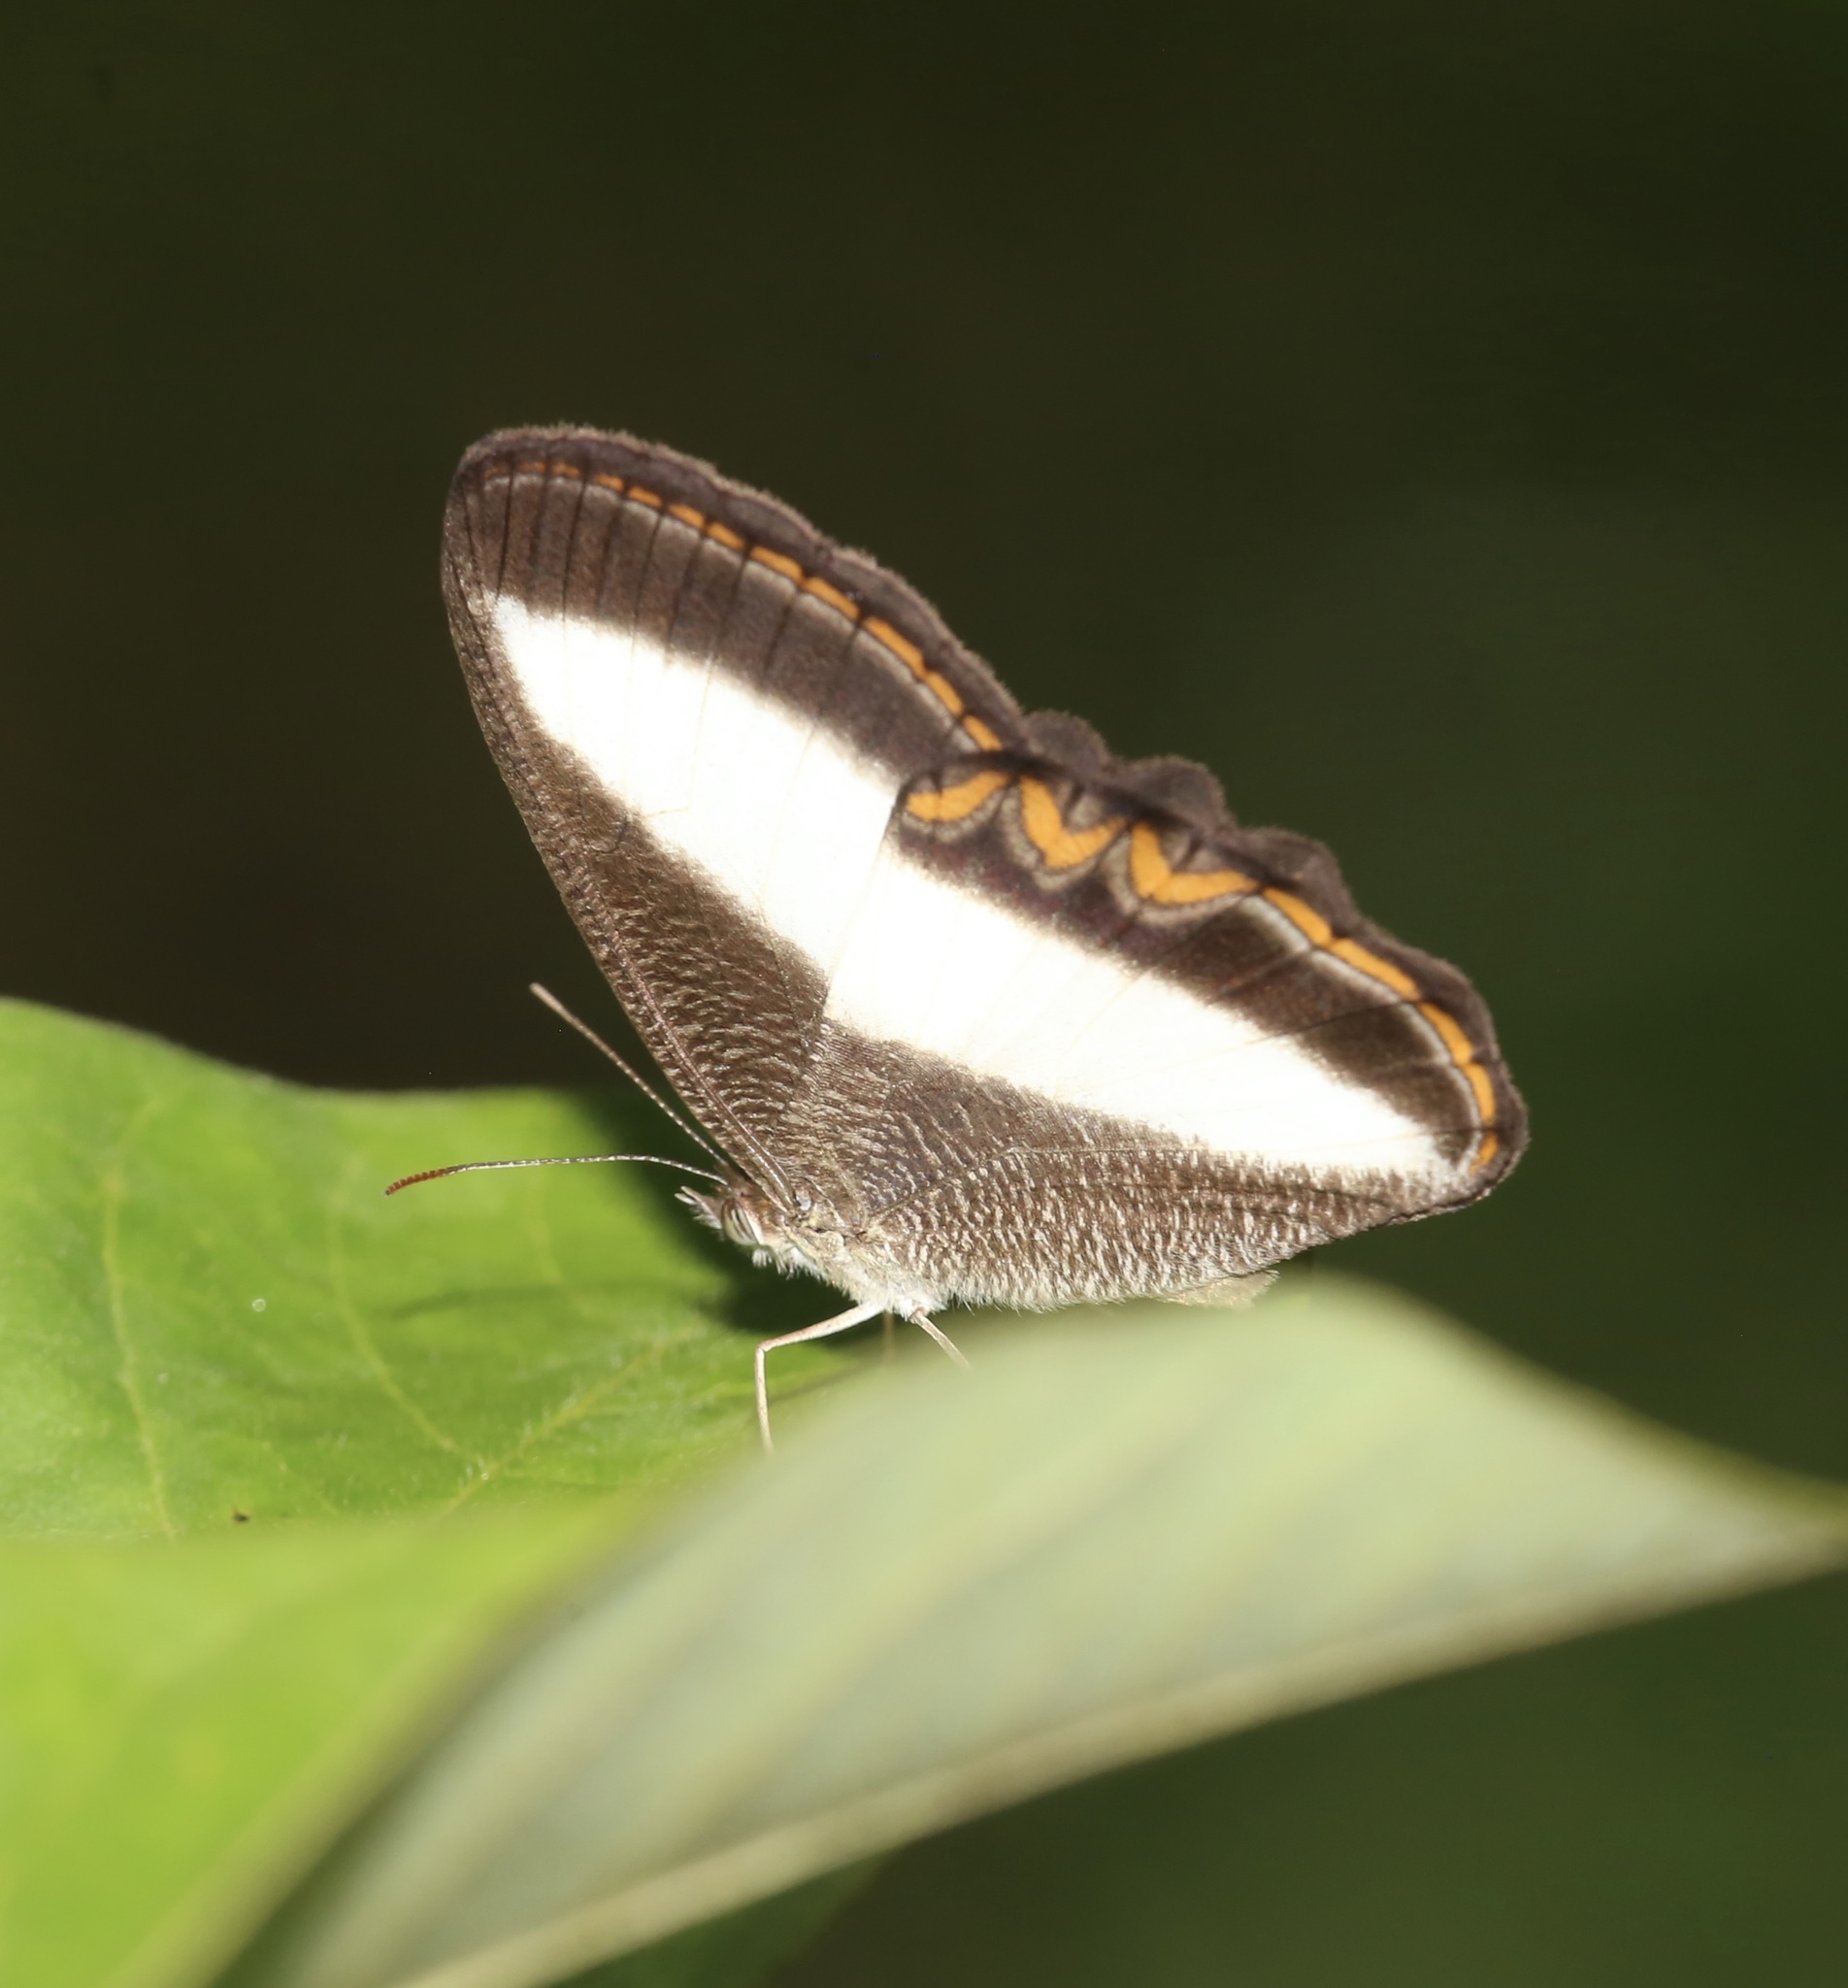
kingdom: Animalia
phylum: Arthropoda
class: Insecta
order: Lepidoptera
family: Nymphalidae
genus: Oressinoma
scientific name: Oressinoma typhla
